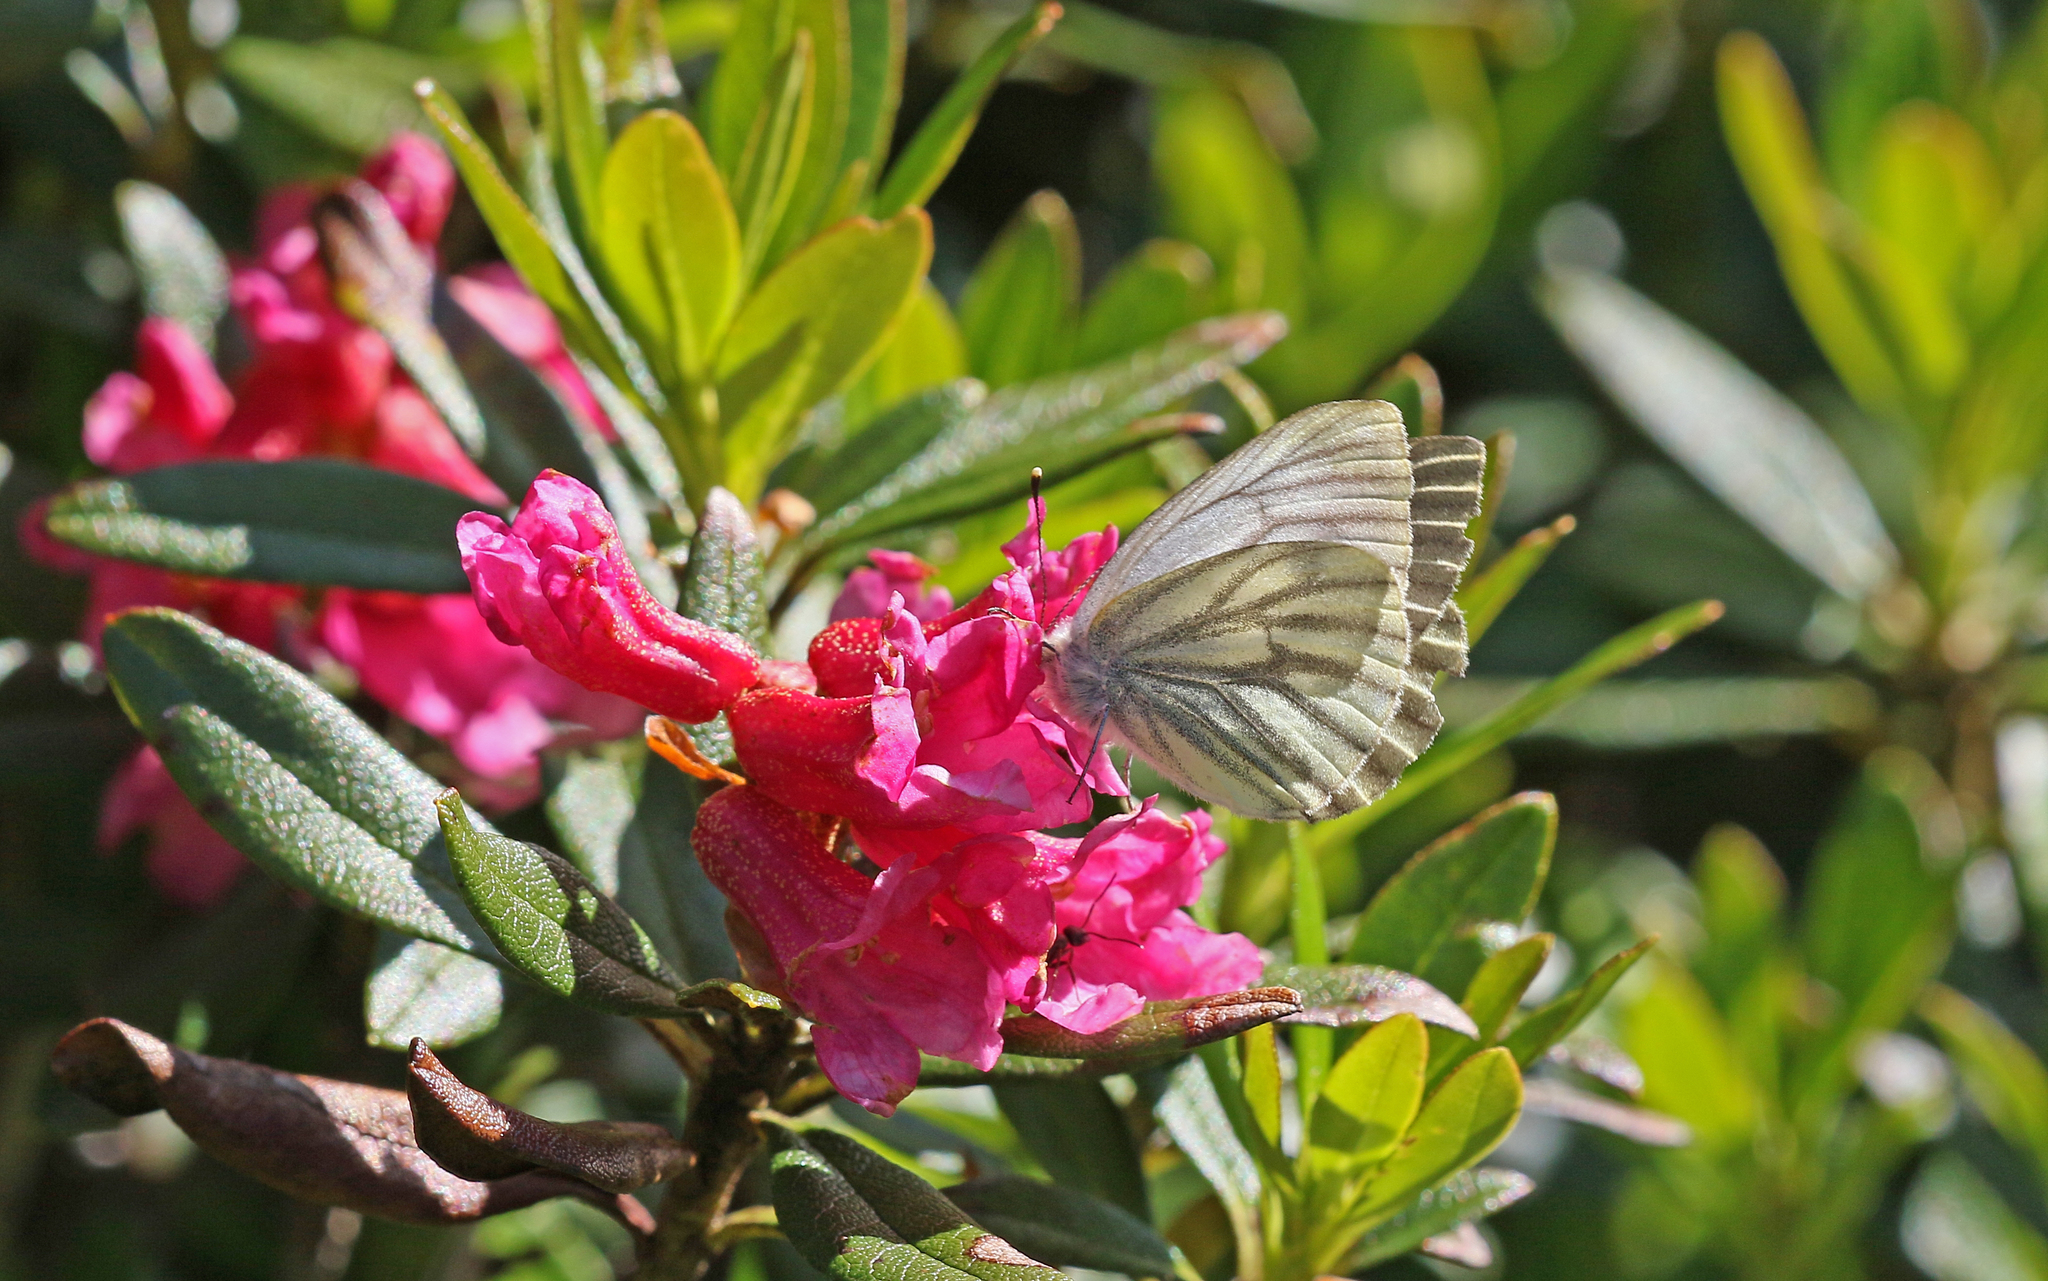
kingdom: Animalia
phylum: Arthropoda
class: Insecta
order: Lepidoptera
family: Pieridae
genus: Pieris
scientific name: Pieris bryoniae
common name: Mountain green-veined white
